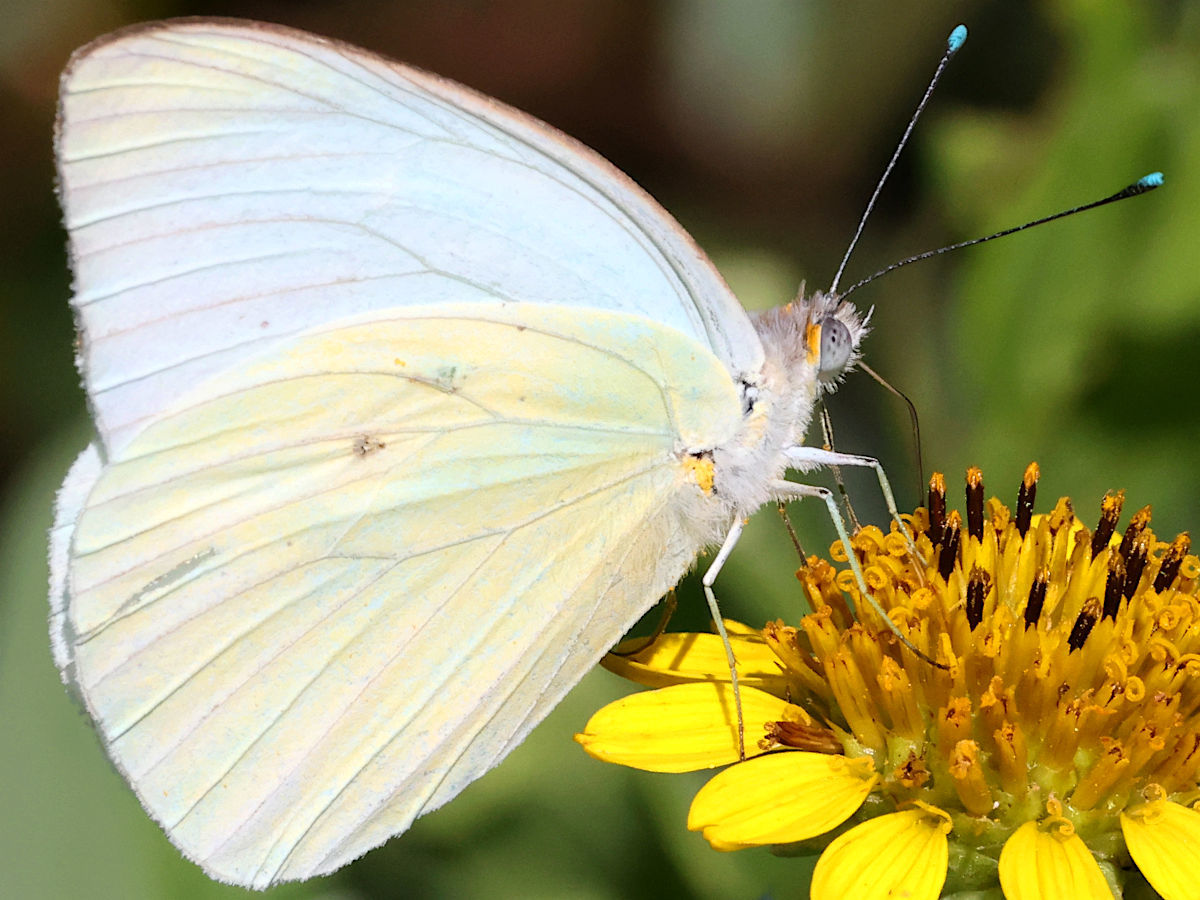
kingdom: Animalia
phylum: Arthropoda
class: Insecta
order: Lepidoptera
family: Pieridae
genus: Ascia
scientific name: Ascia monuste
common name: Great southern white
